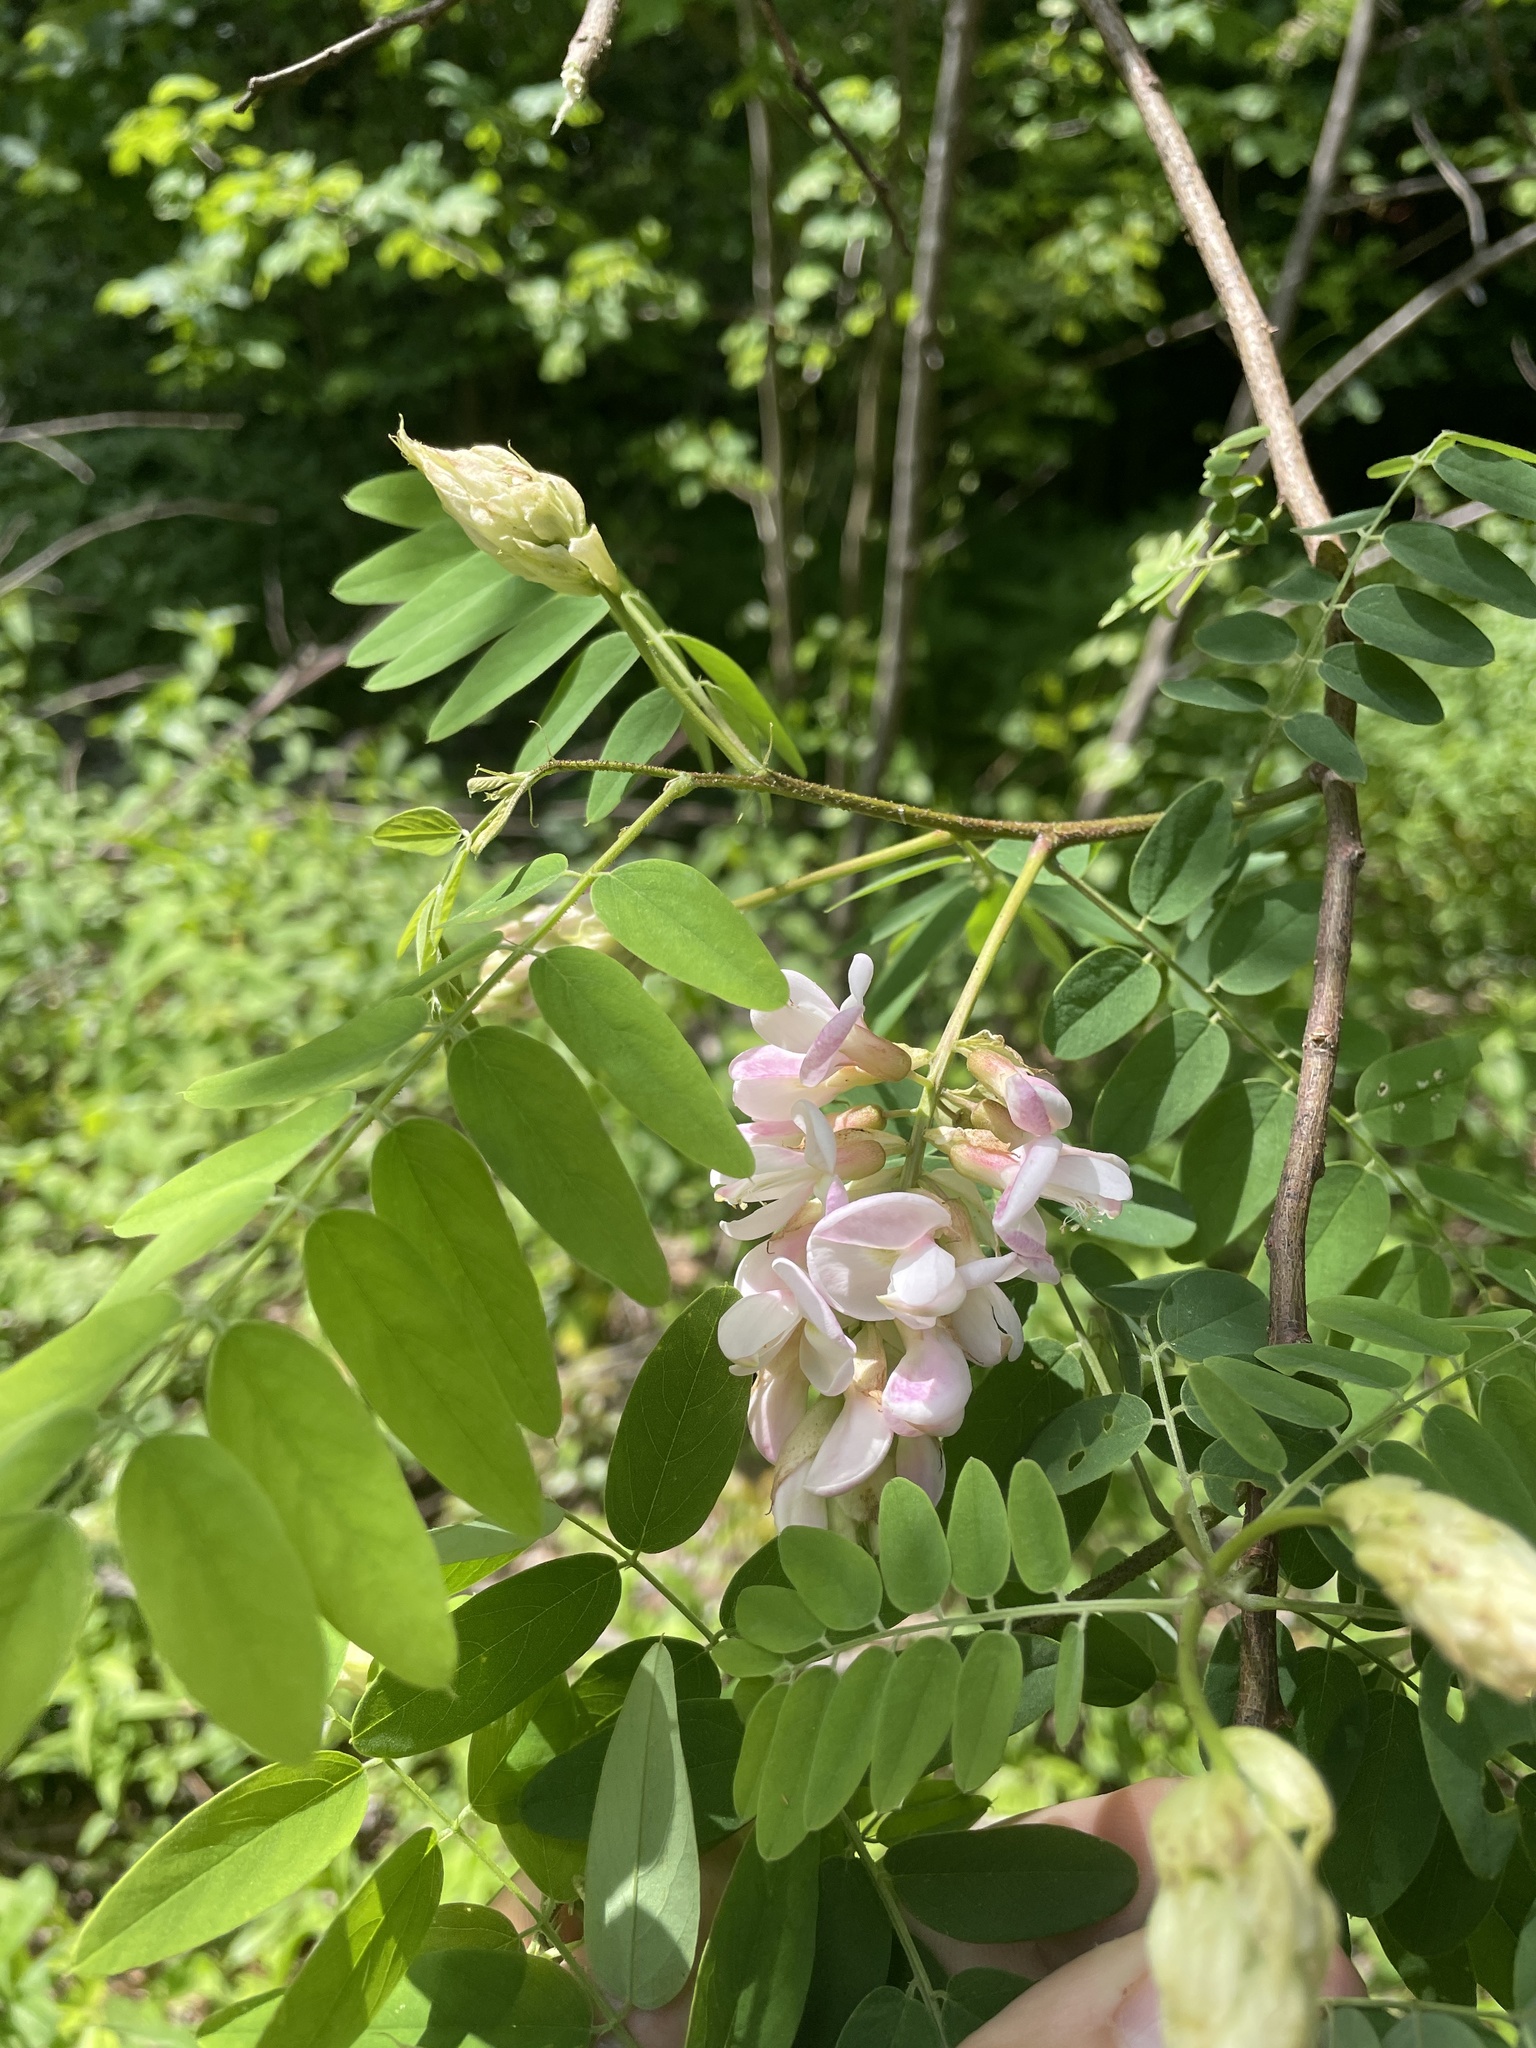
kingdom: Plantae
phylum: Tracheophyta
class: Magnoliopsida
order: Fabales
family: Fabaceae
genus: Robinia
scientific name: Robinia viscosa
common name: Clammy locust
